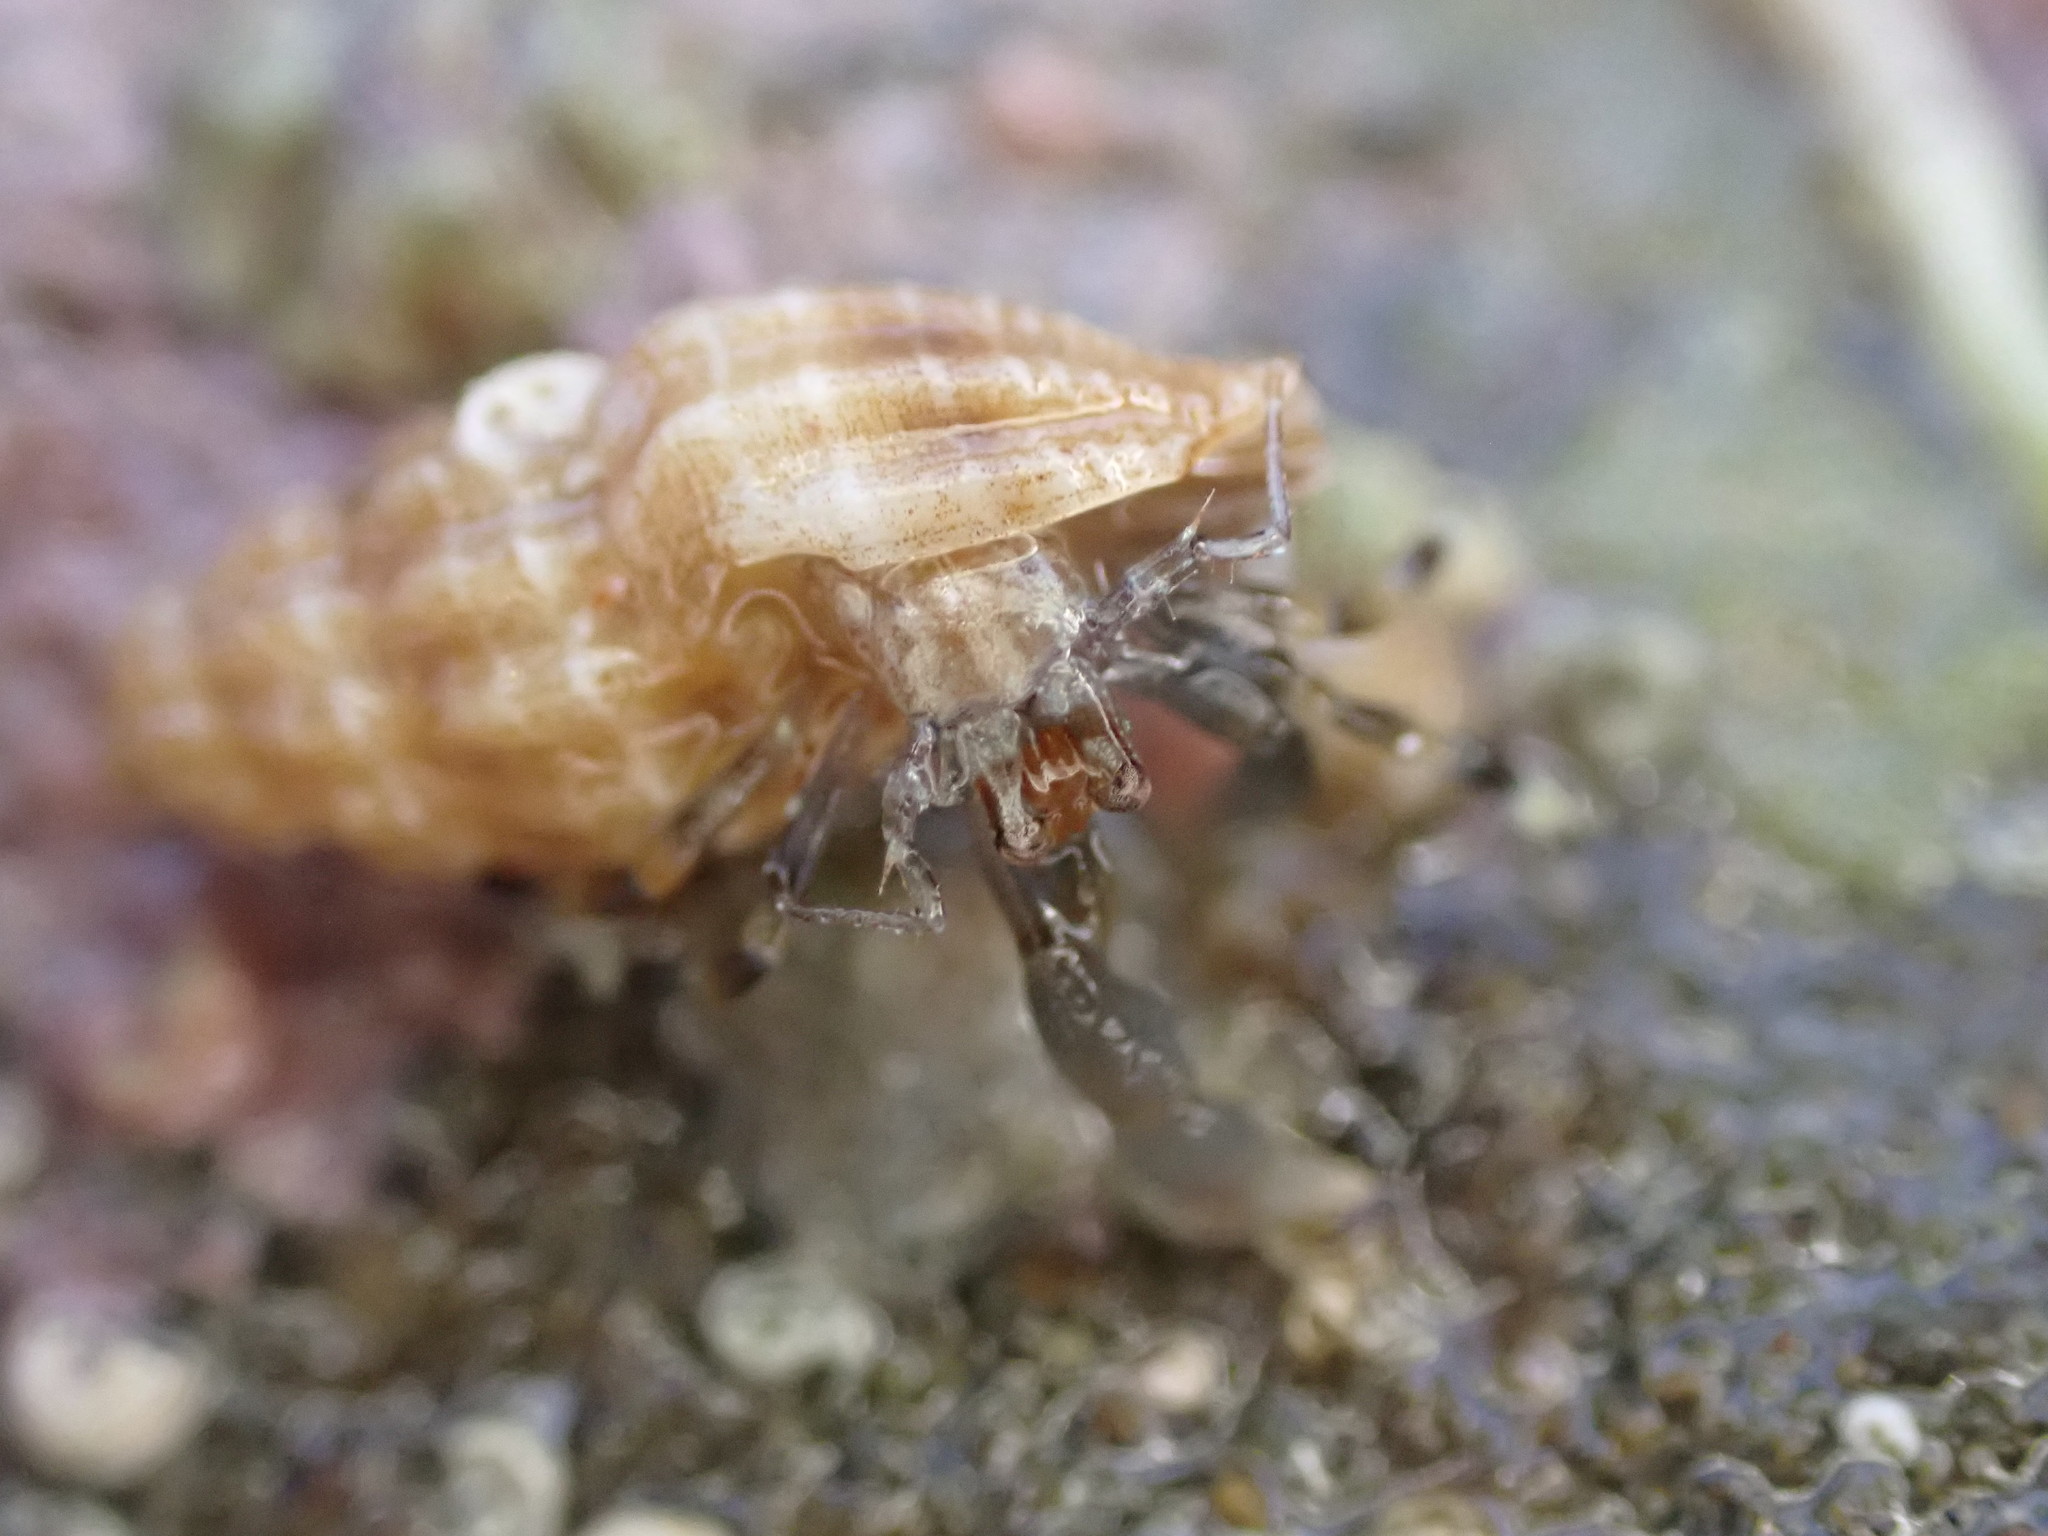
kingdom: Animalia
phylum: Arthropoda
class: Malacostraca
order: Decapoda
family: Paguridae
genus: Pagurixus
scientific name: Pagurixus hectori
